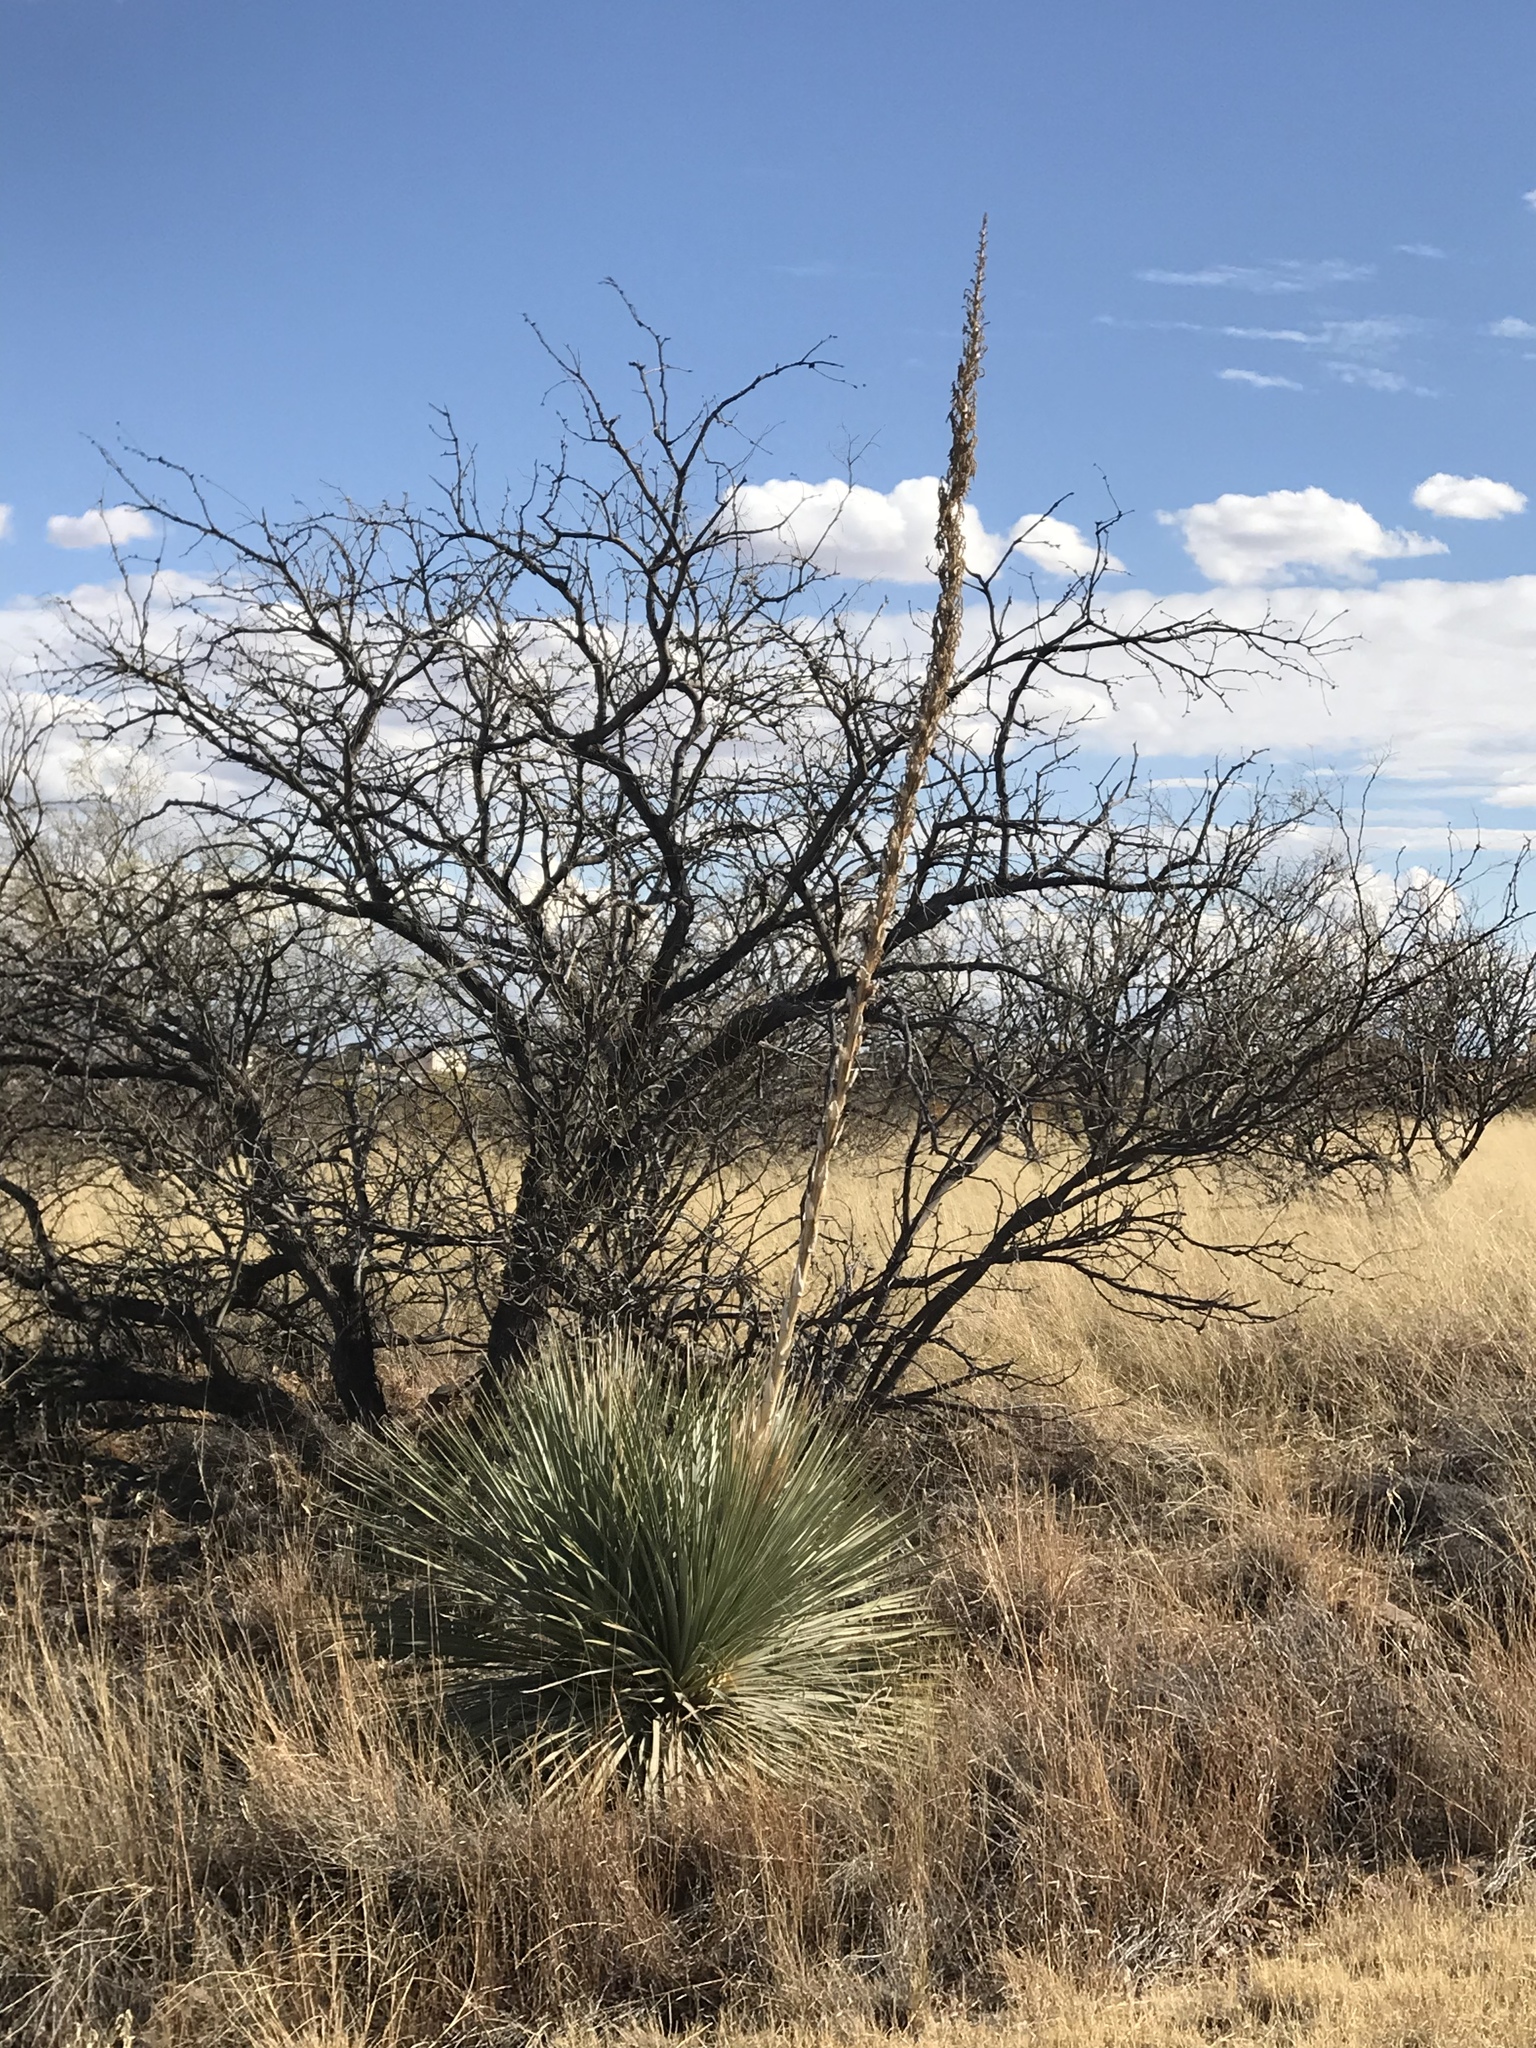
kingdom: Plantae
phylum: Tracheophyta
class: Liliopsida
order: Asparagales
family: Asparagaceae
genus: Dasylirion
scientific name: Dasylirion wheeleri
